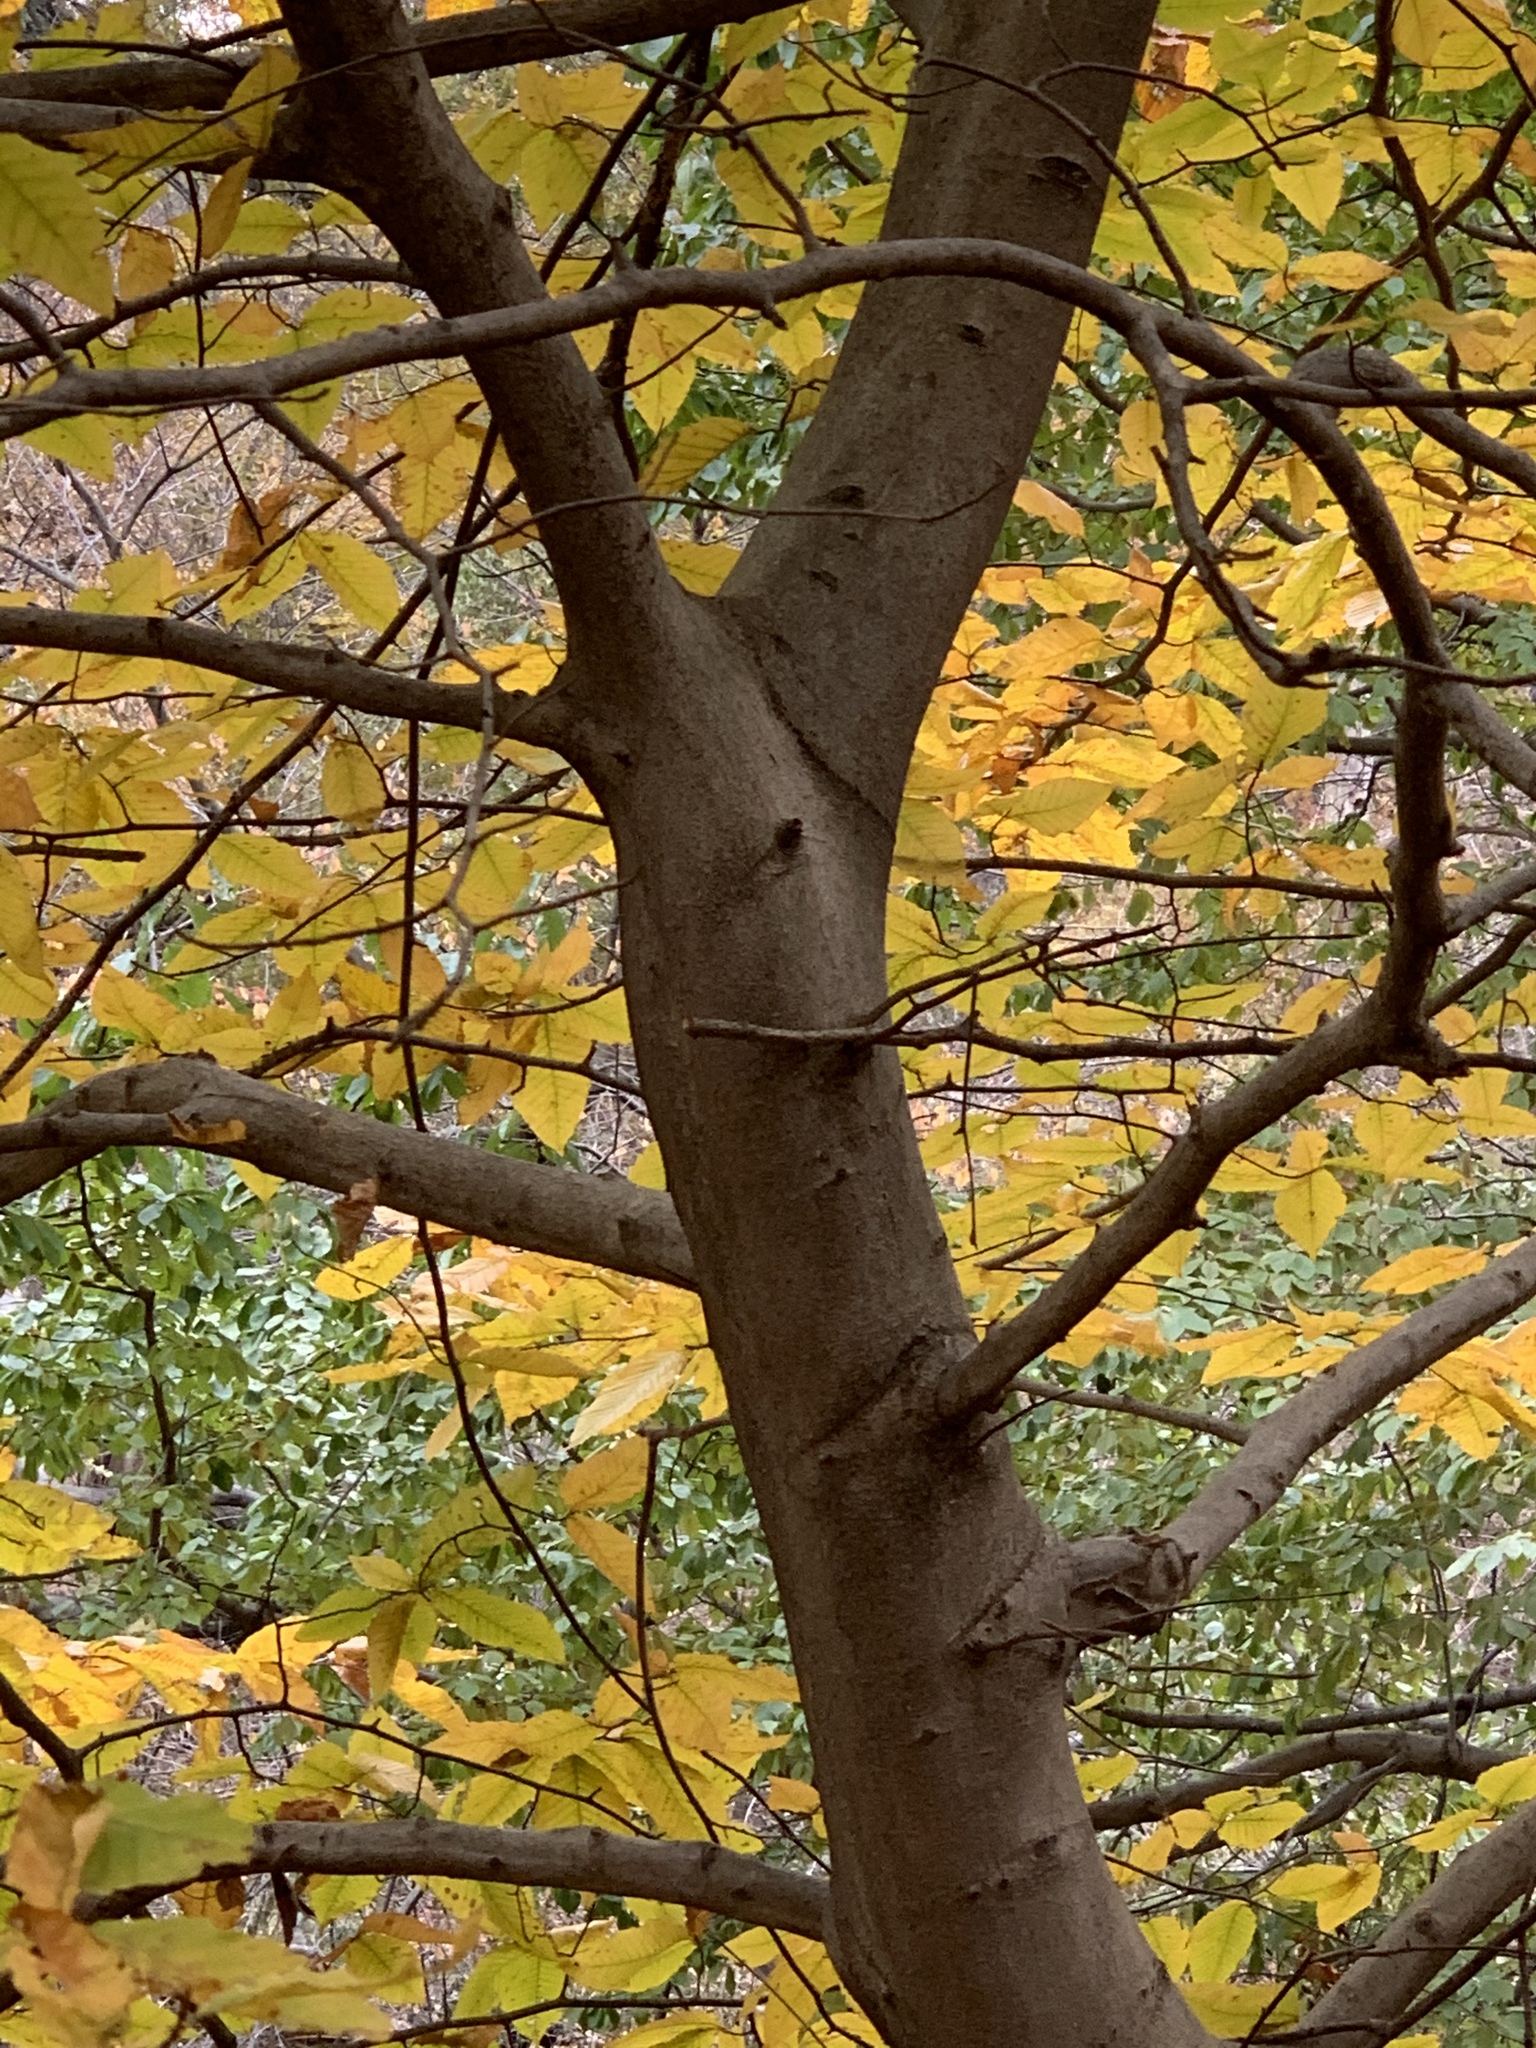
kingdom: Plantae
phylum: Tracheophyta
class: Magnoliopsida
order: Fagales
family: Fagaceae
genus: Fagus
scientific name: Fagus grandifolia
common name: American beech
